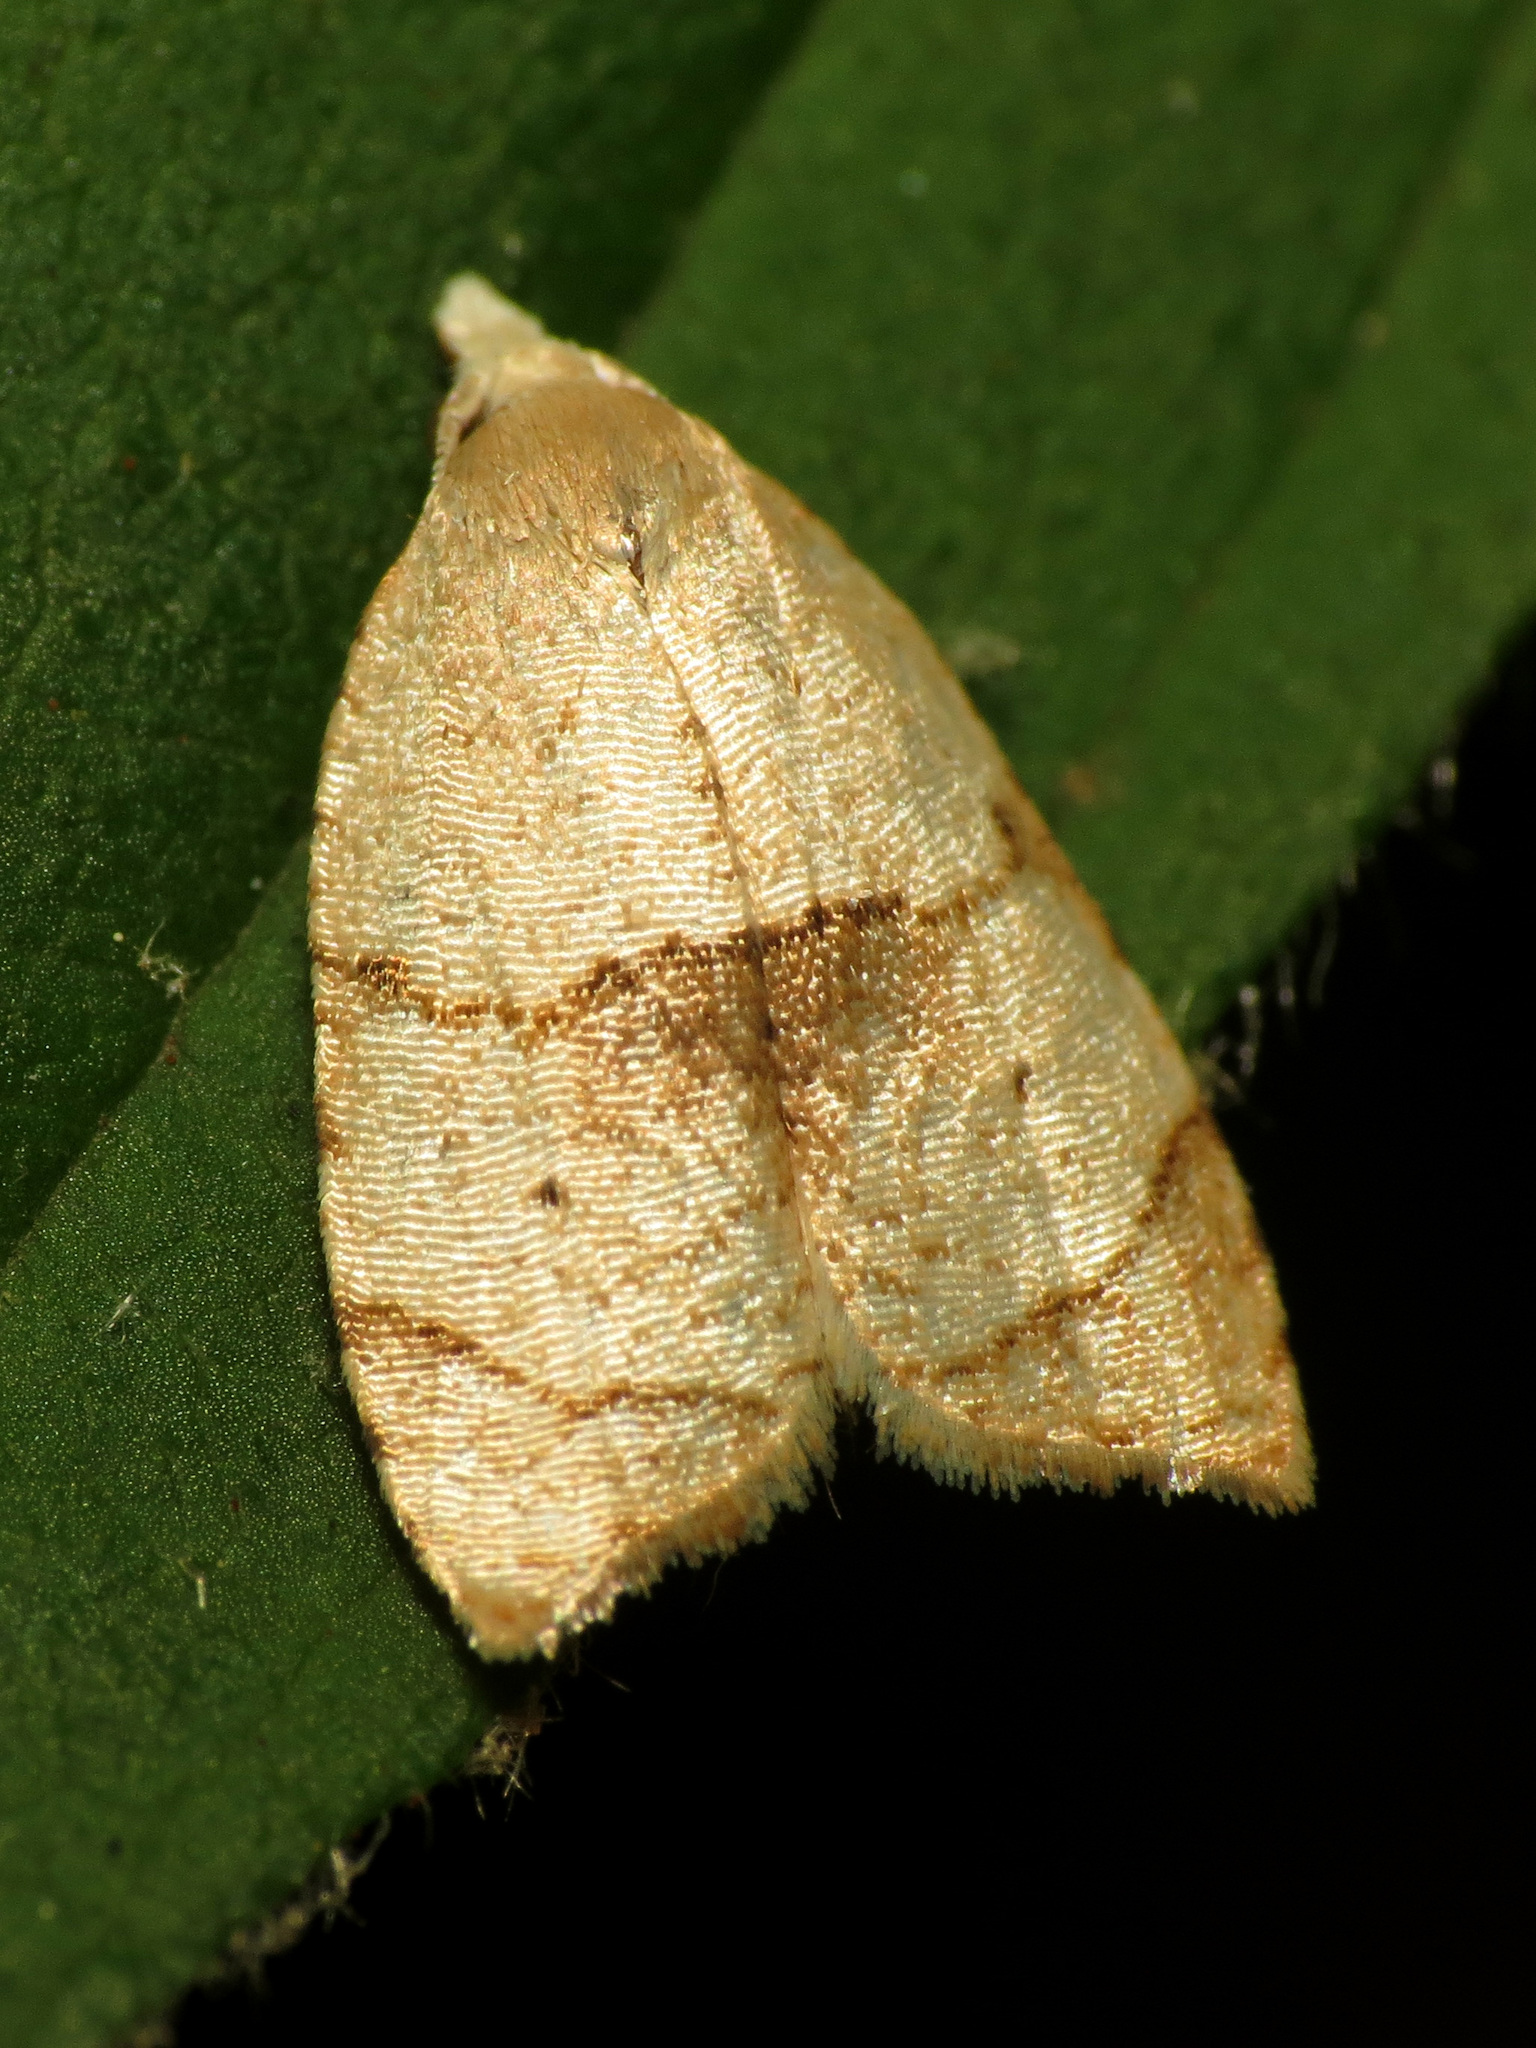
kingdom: Animalia
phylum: Arthropoda
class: Insecta
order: Lepidoptera
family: Tortricidae
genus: Coelostathma
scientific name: Coelostathma discopunctana
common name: Batman moth
